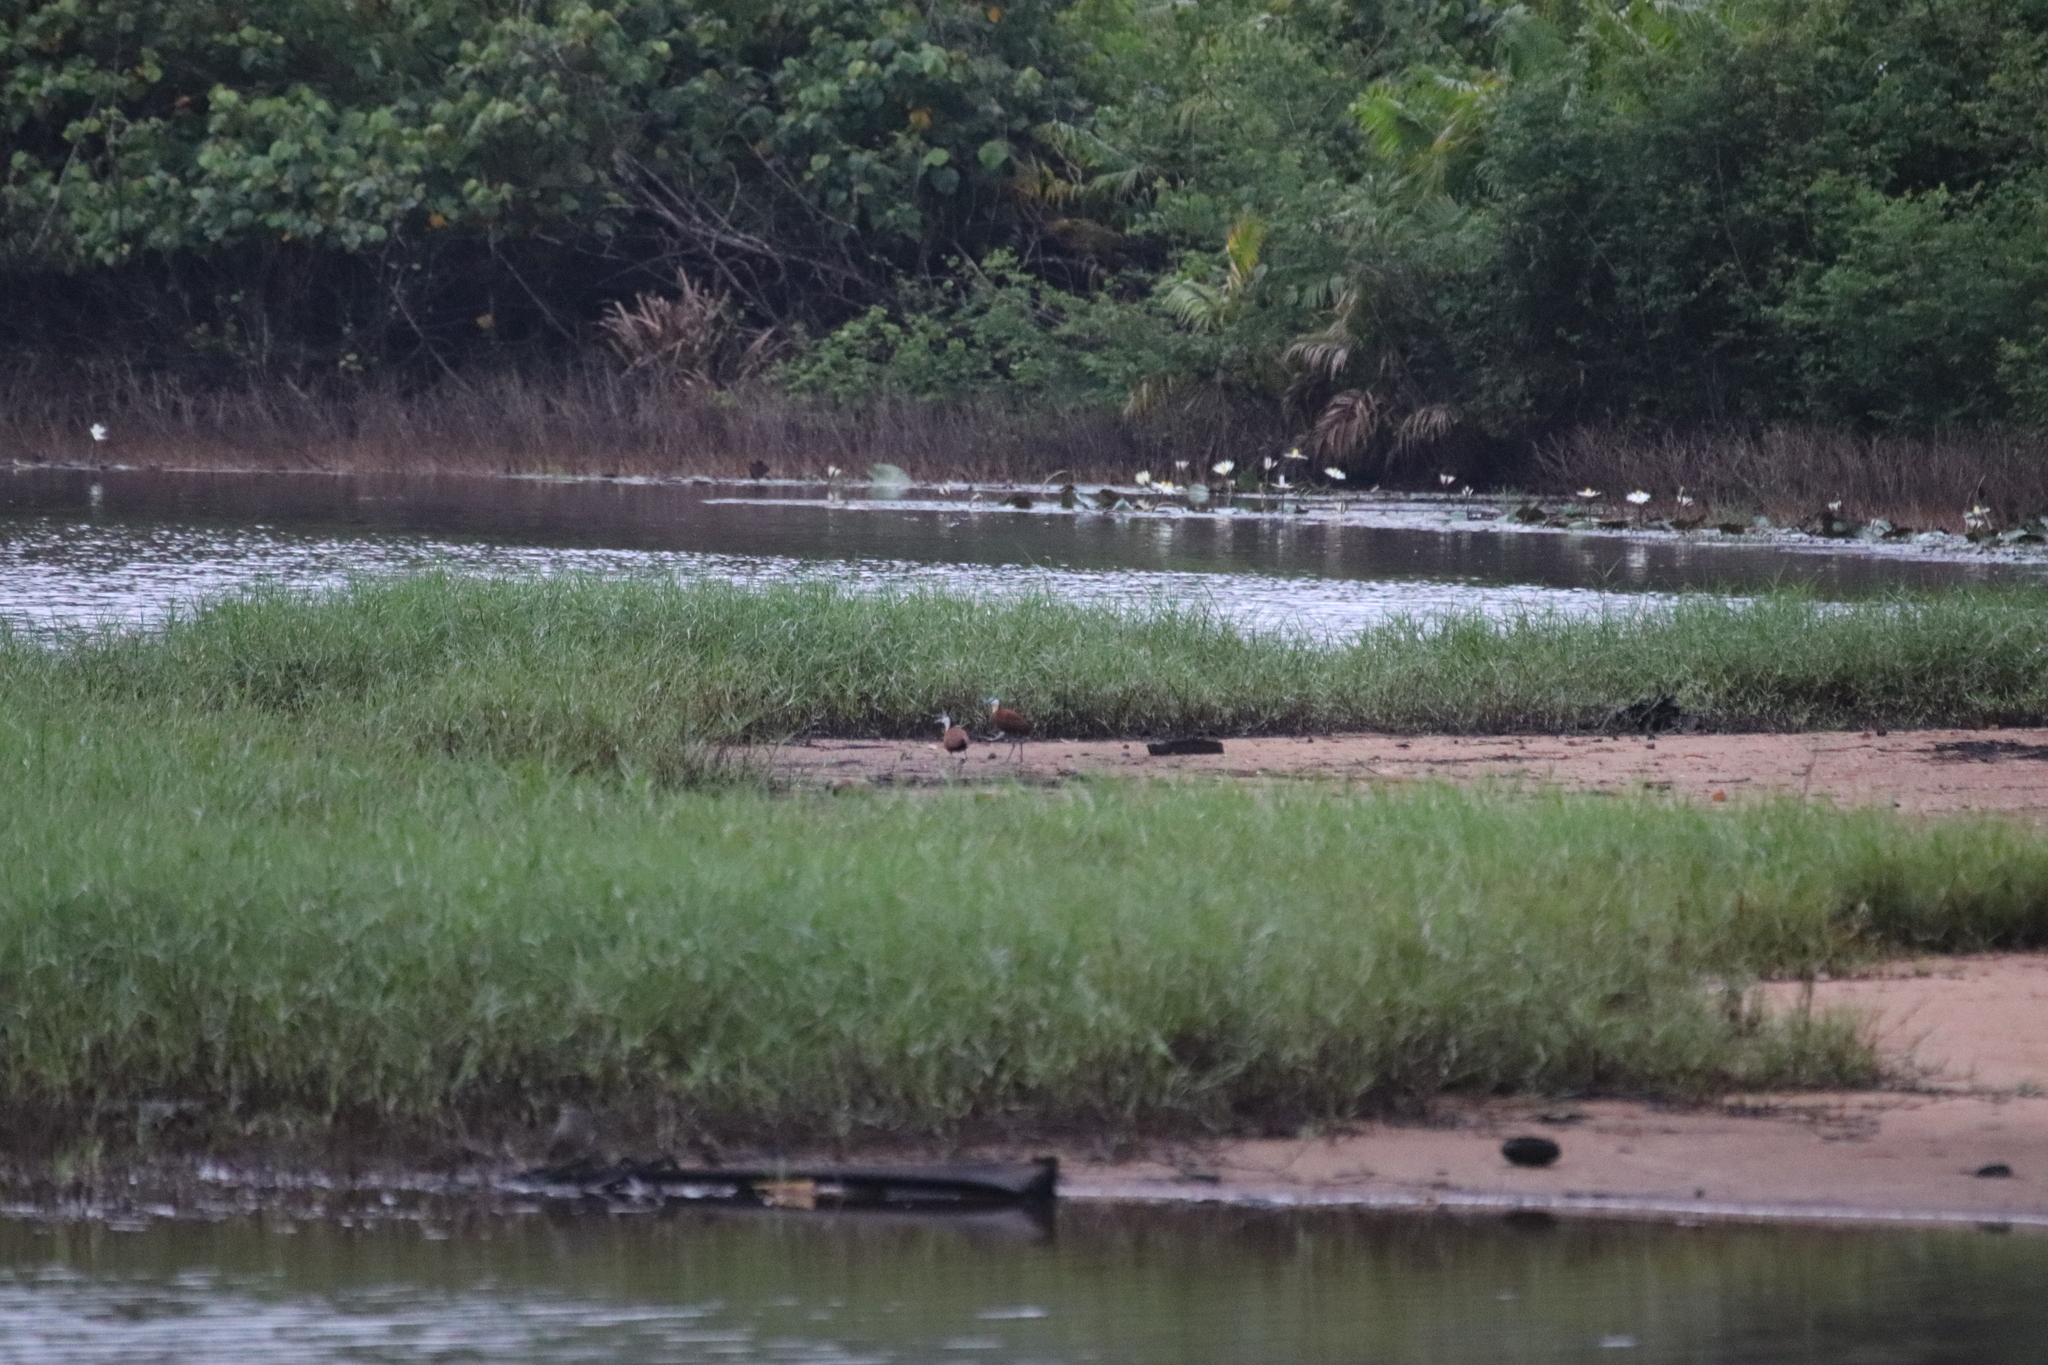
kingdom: Animalia
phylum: Chordata
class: Aves
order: Charadriiformes
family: Jacanidae
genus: Actophilornis
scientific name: Actophilornis africanus
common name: African jacana
